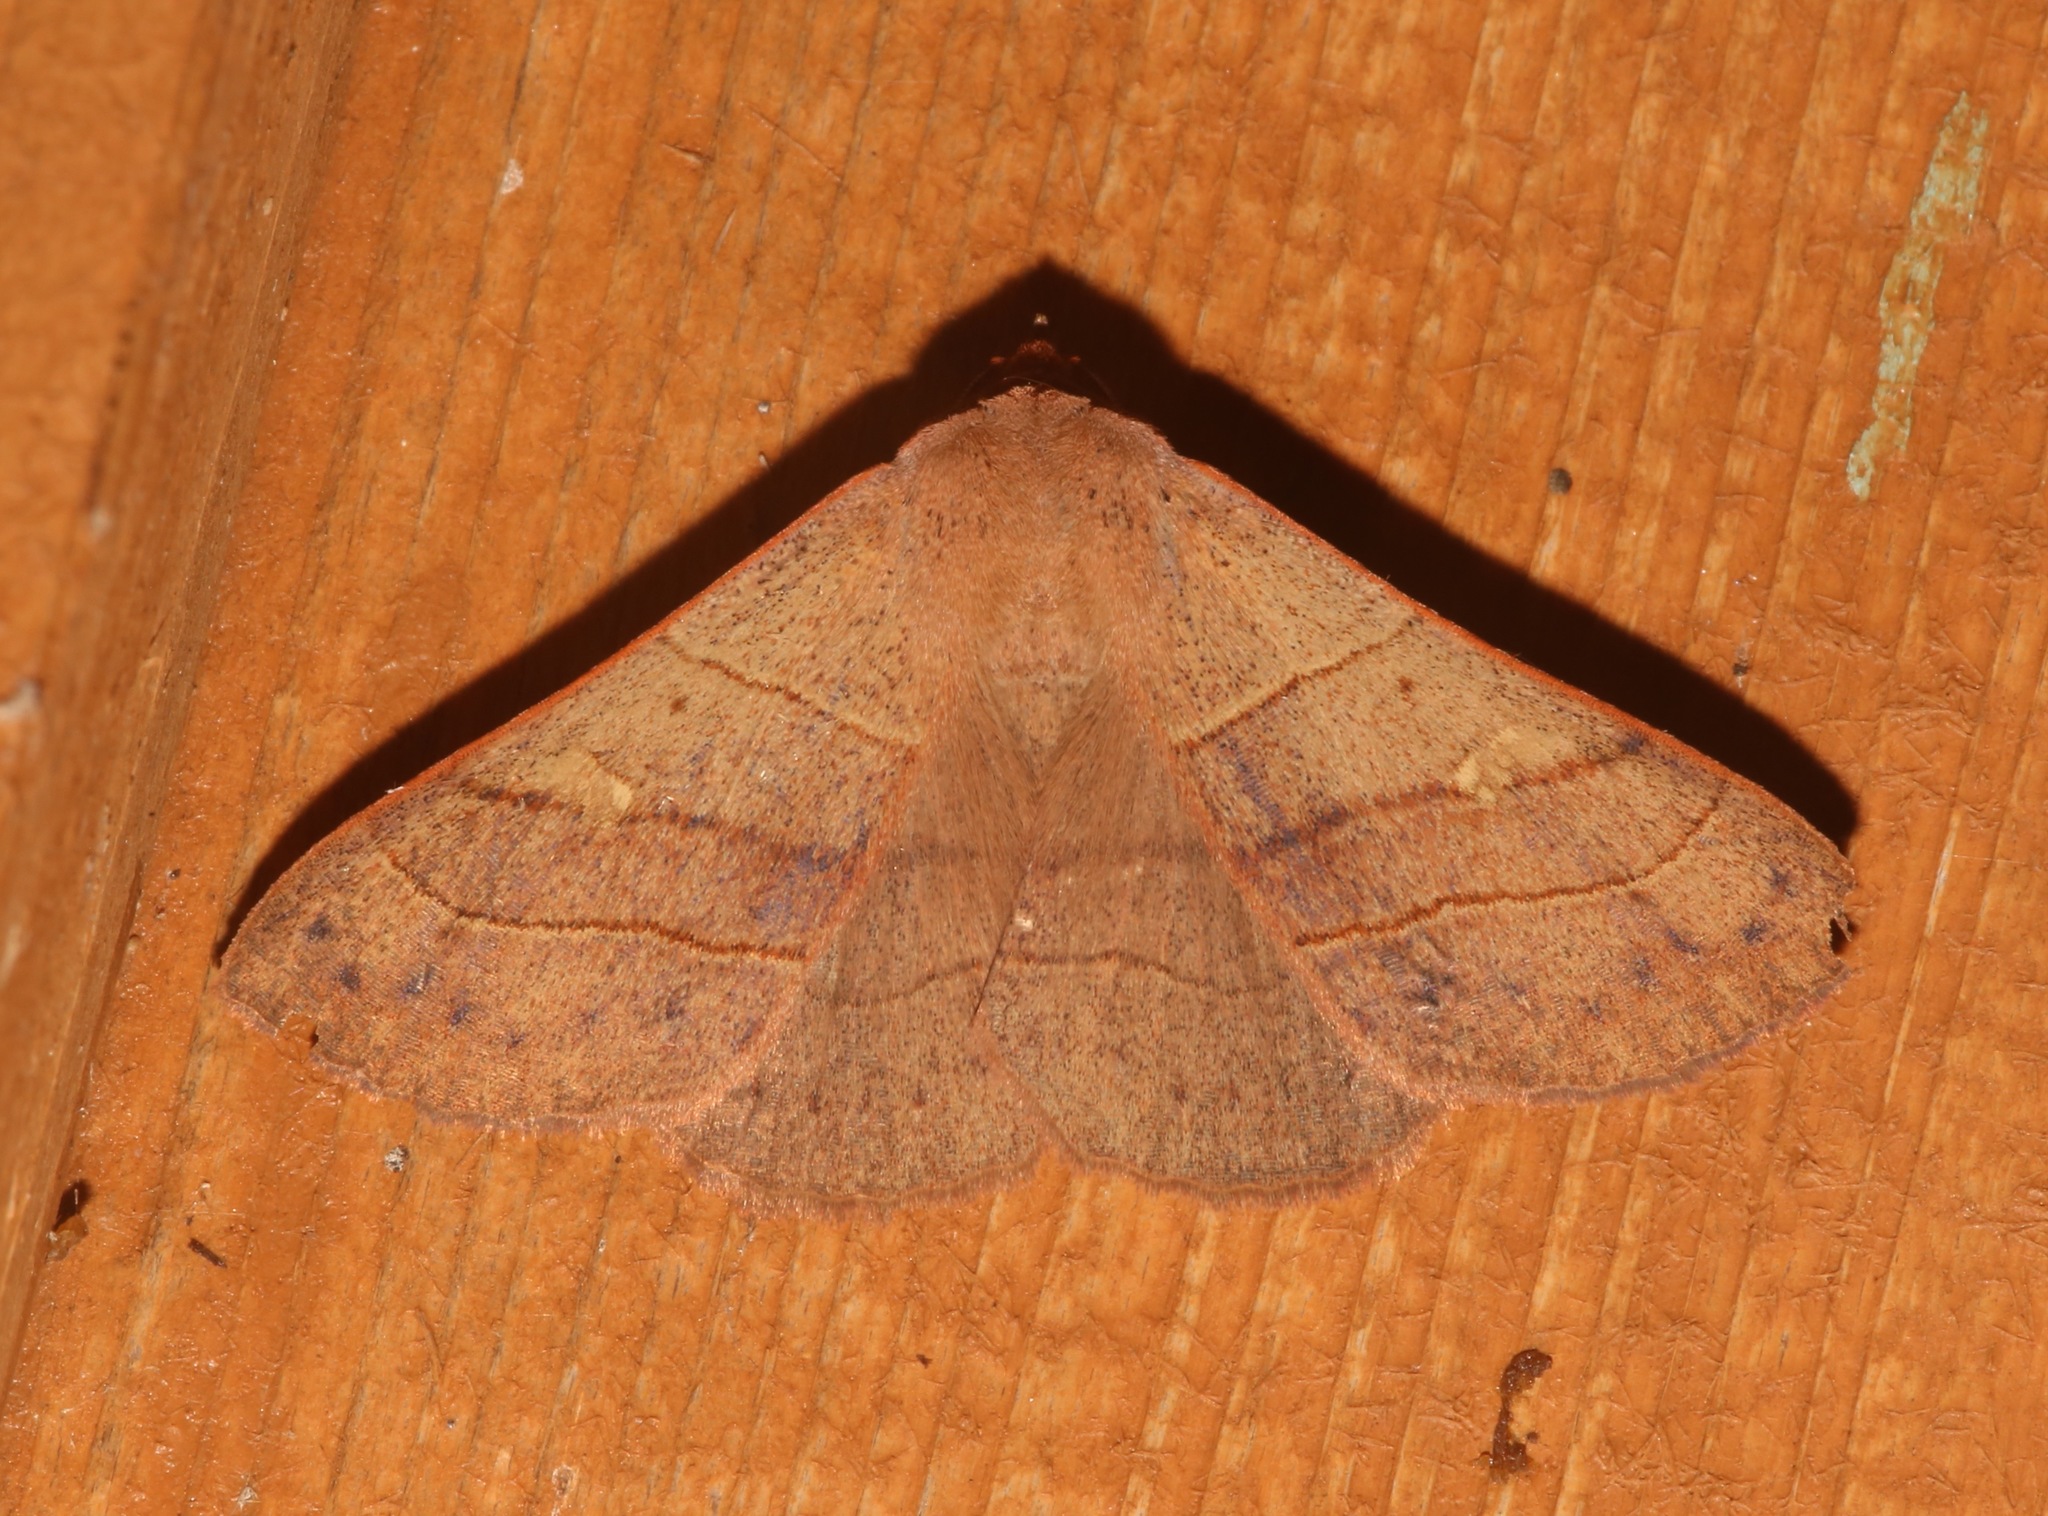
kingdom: Animalia
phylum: Arthropoda
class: Insecta
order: Lepidoptera
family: Erebidae
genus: Panopoda
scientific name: Panopoda rufimargo
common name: Red-lined panopoda moth
